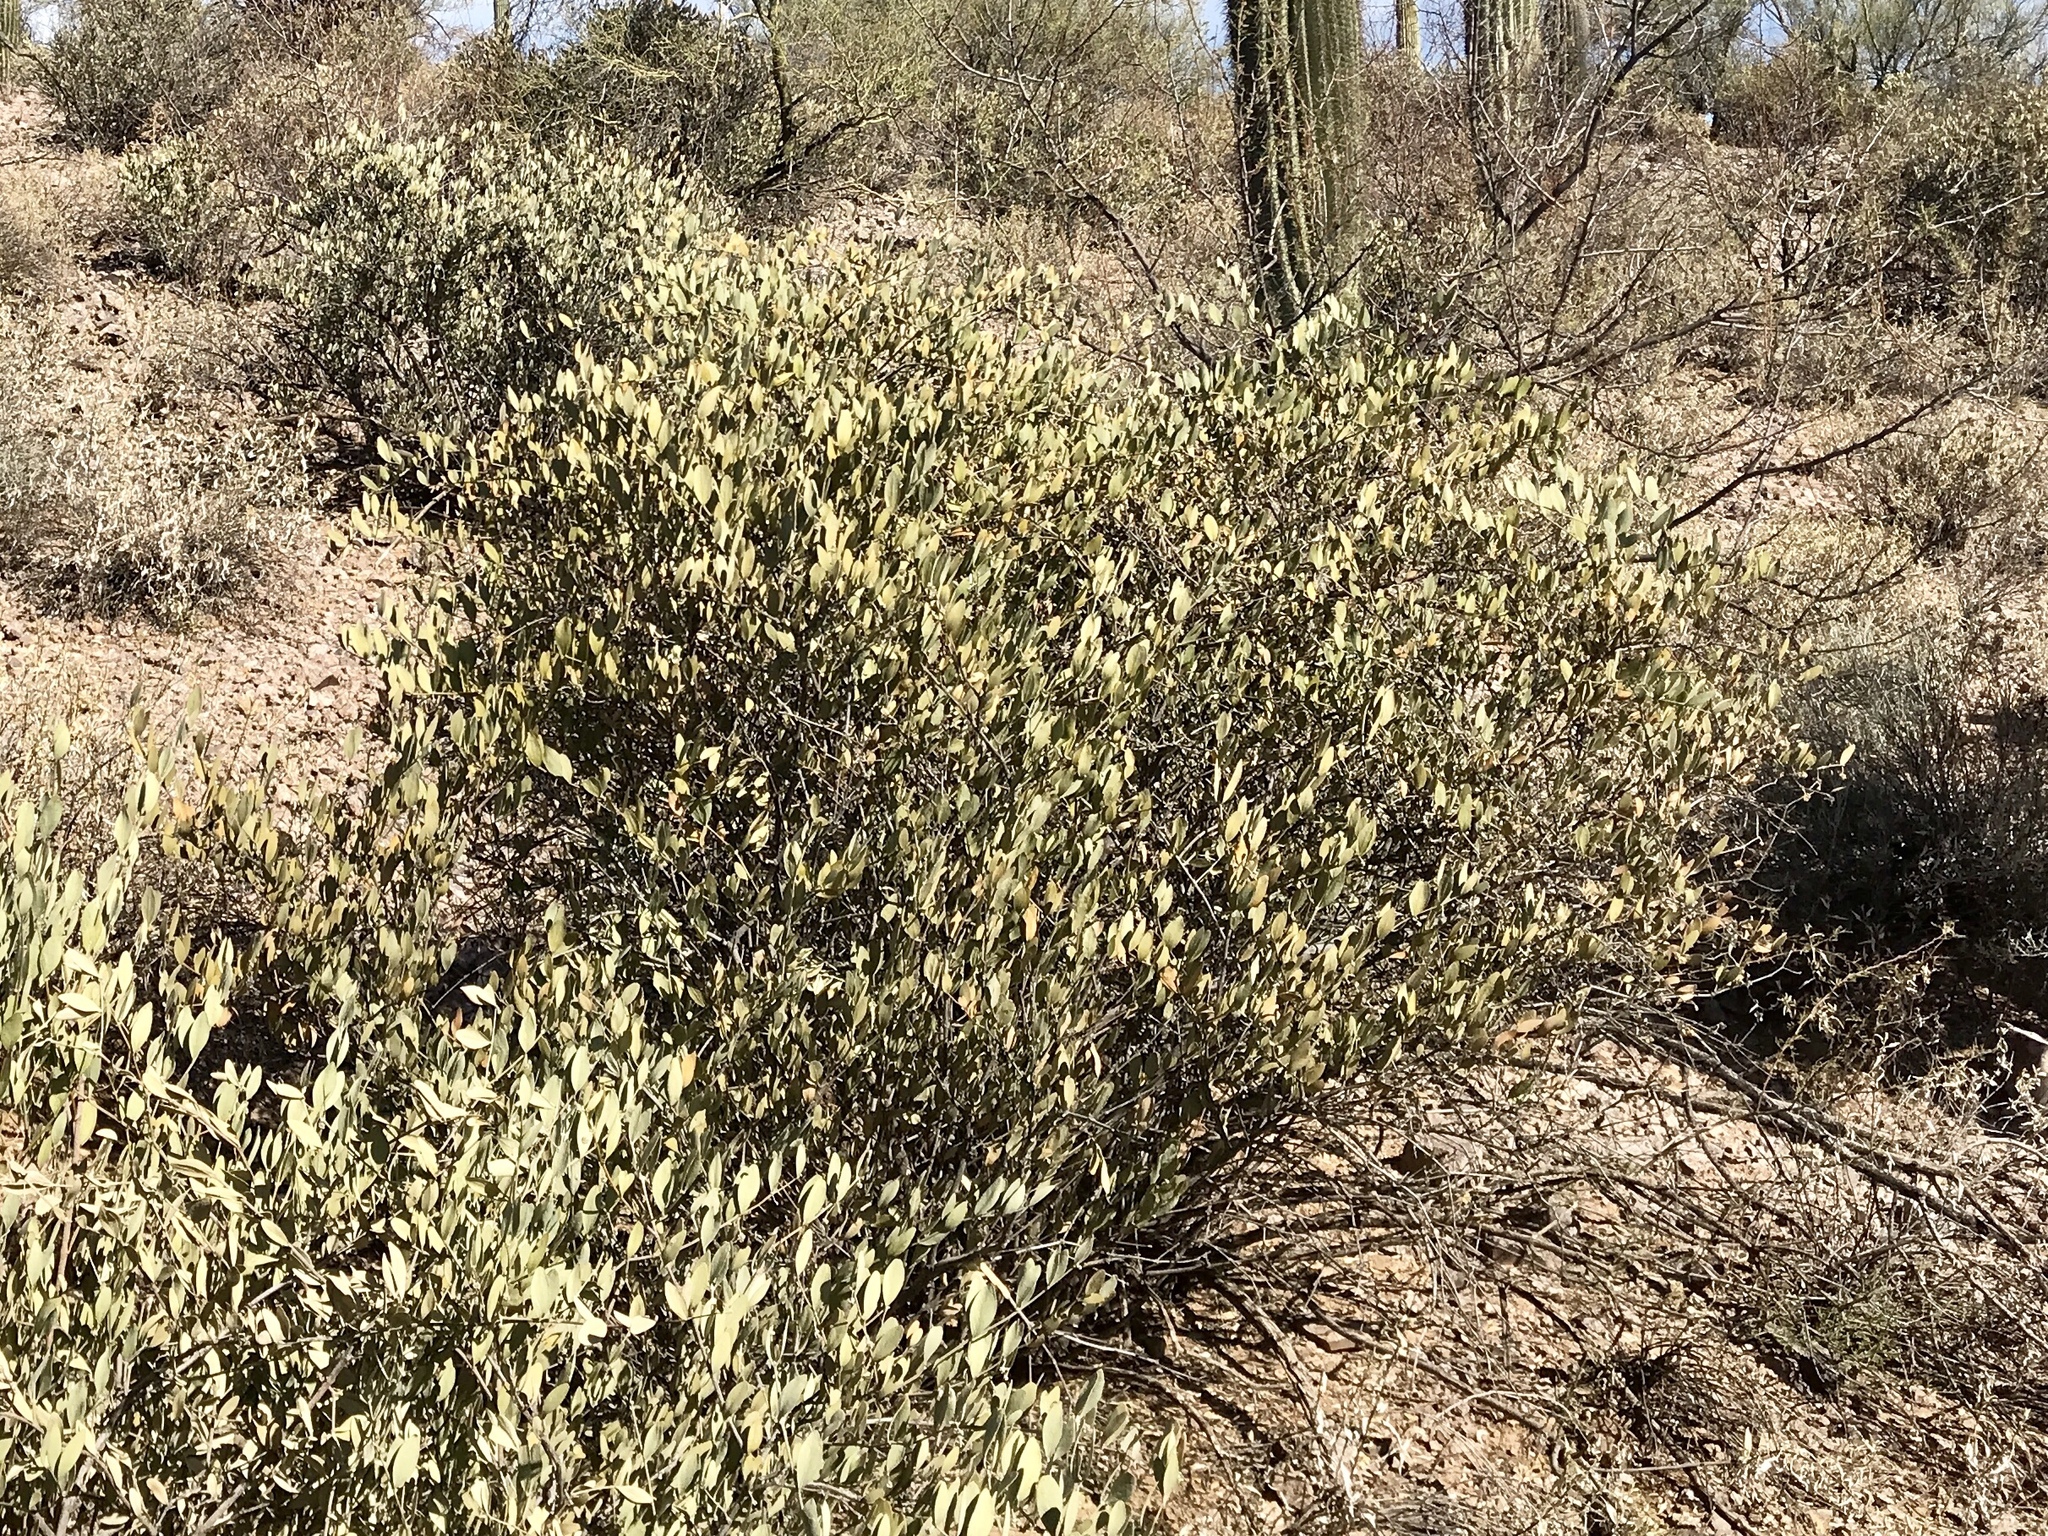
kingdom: Plantae
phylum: Tracheophyta
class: Magnoliopsida
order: Caryophyllales
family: Simmondsiaceae
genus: Simmondsia
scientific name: Simmondsia chinensis
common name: Jojoba
